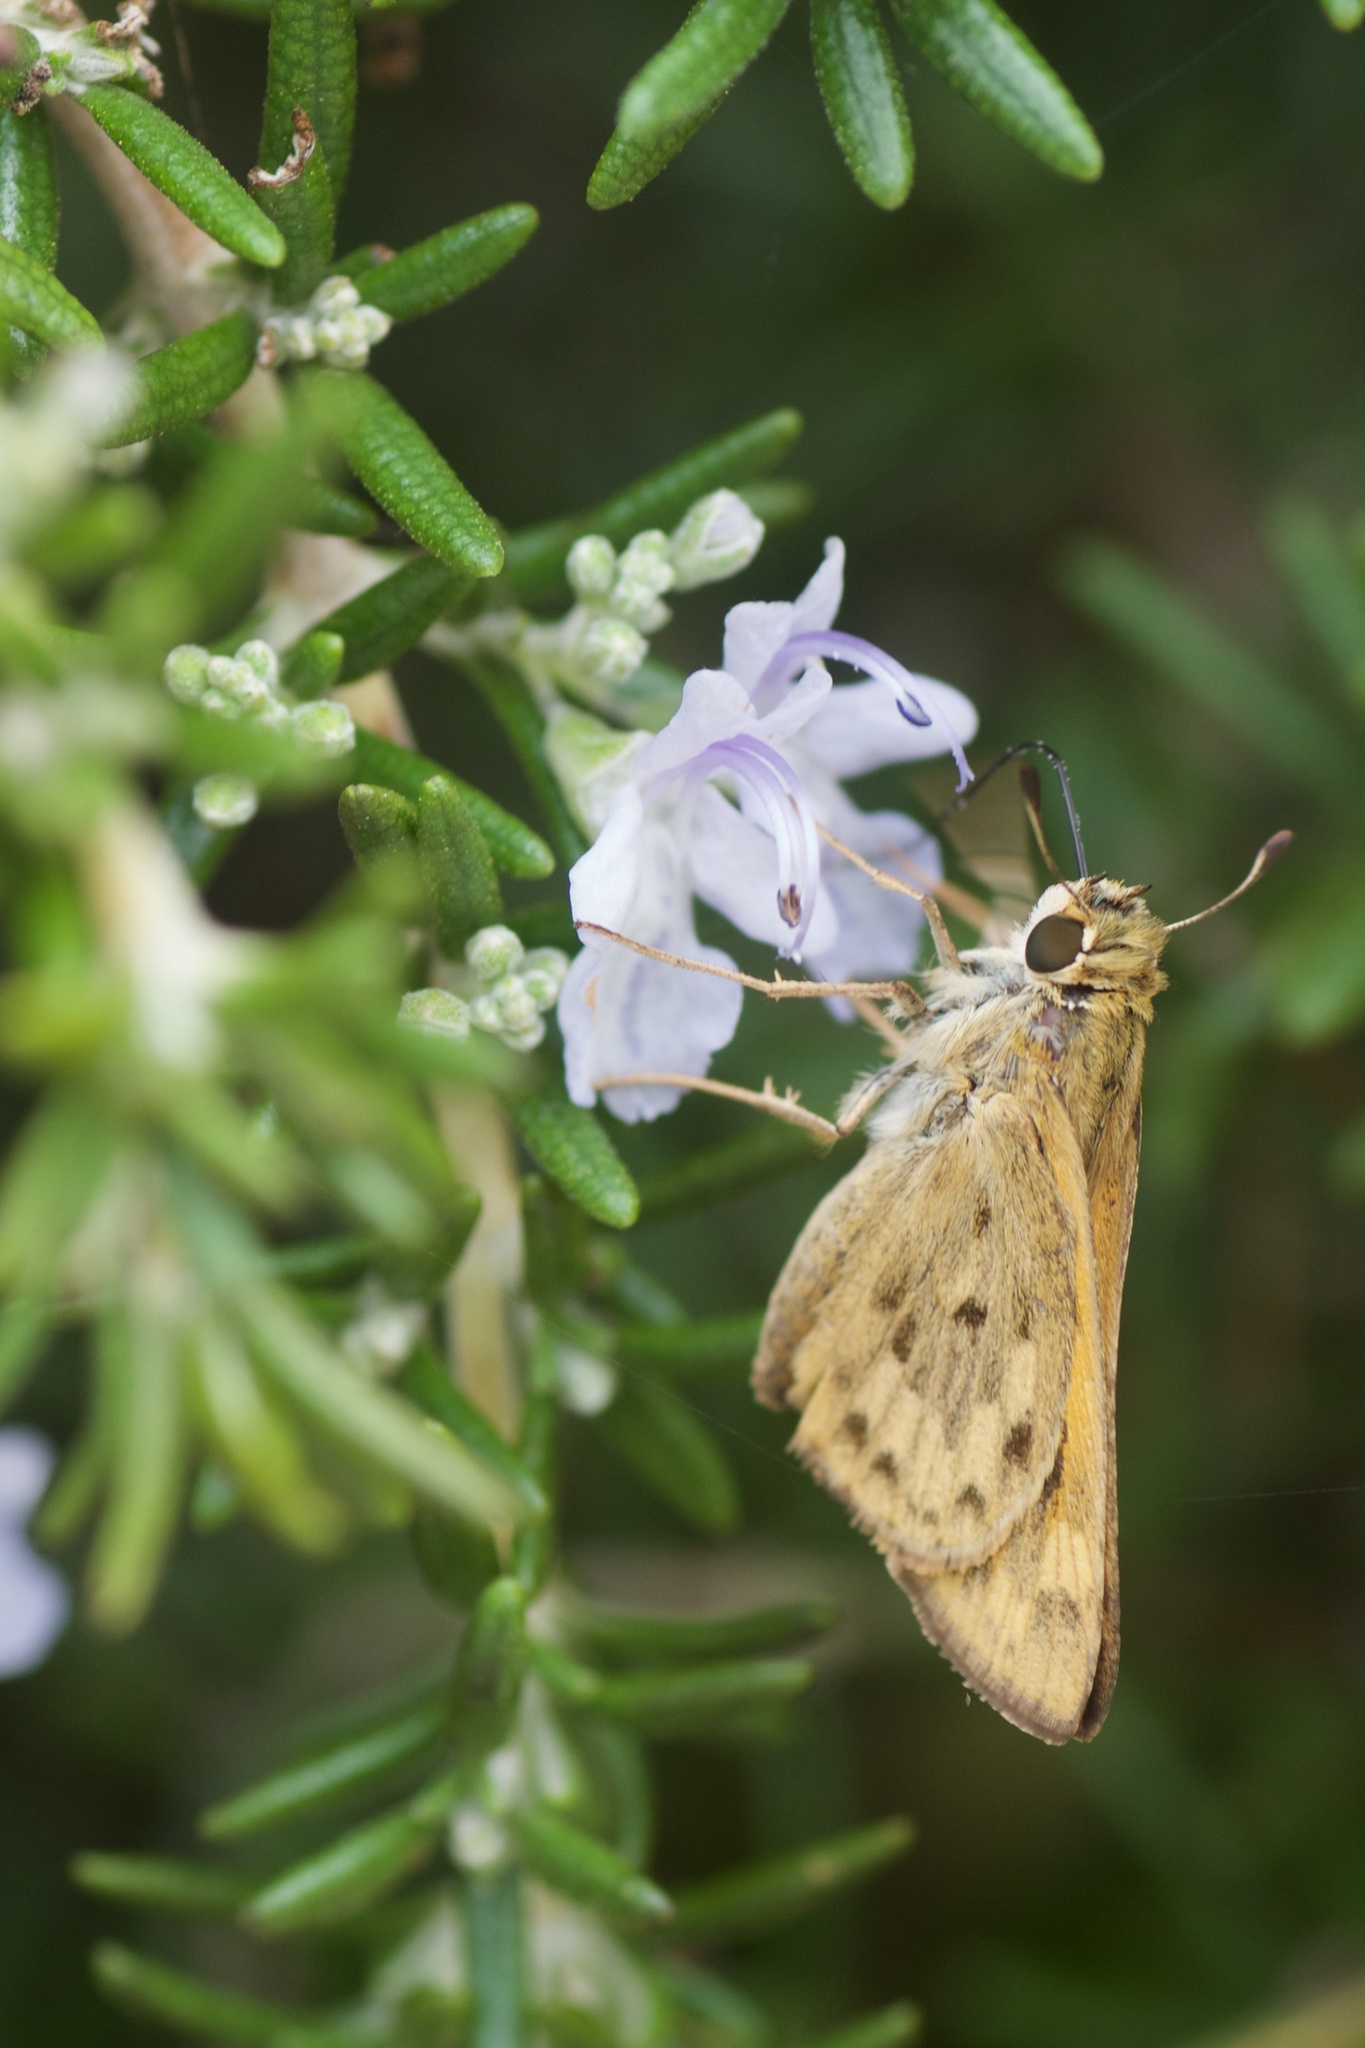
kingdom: Animalia
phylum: Arthropoda
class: Insecta
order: Lepidoptera
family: Hesperiidae
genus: Hylephila
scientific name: Hylephila phyleus
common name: Fiery skipper
